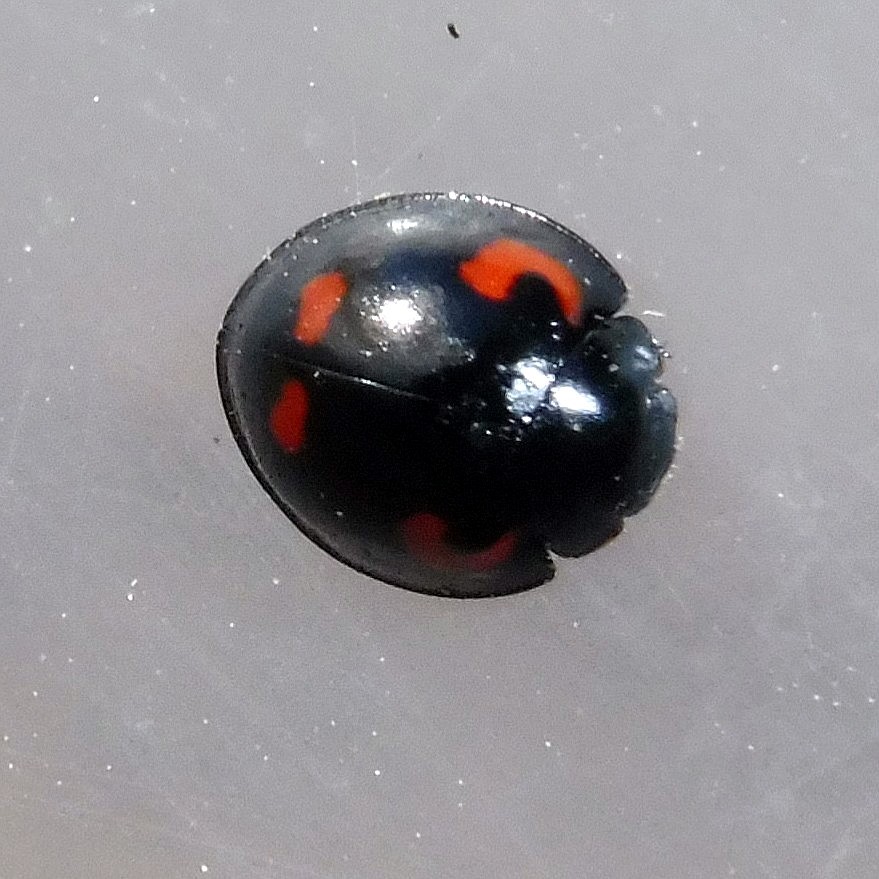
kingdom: Animalia
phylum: Arthropoda
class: Insecta
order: Coleoptera
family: Coccinellidae
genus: Brumus
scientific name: Brumus quadripustulatus
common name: Ladybird beetle
